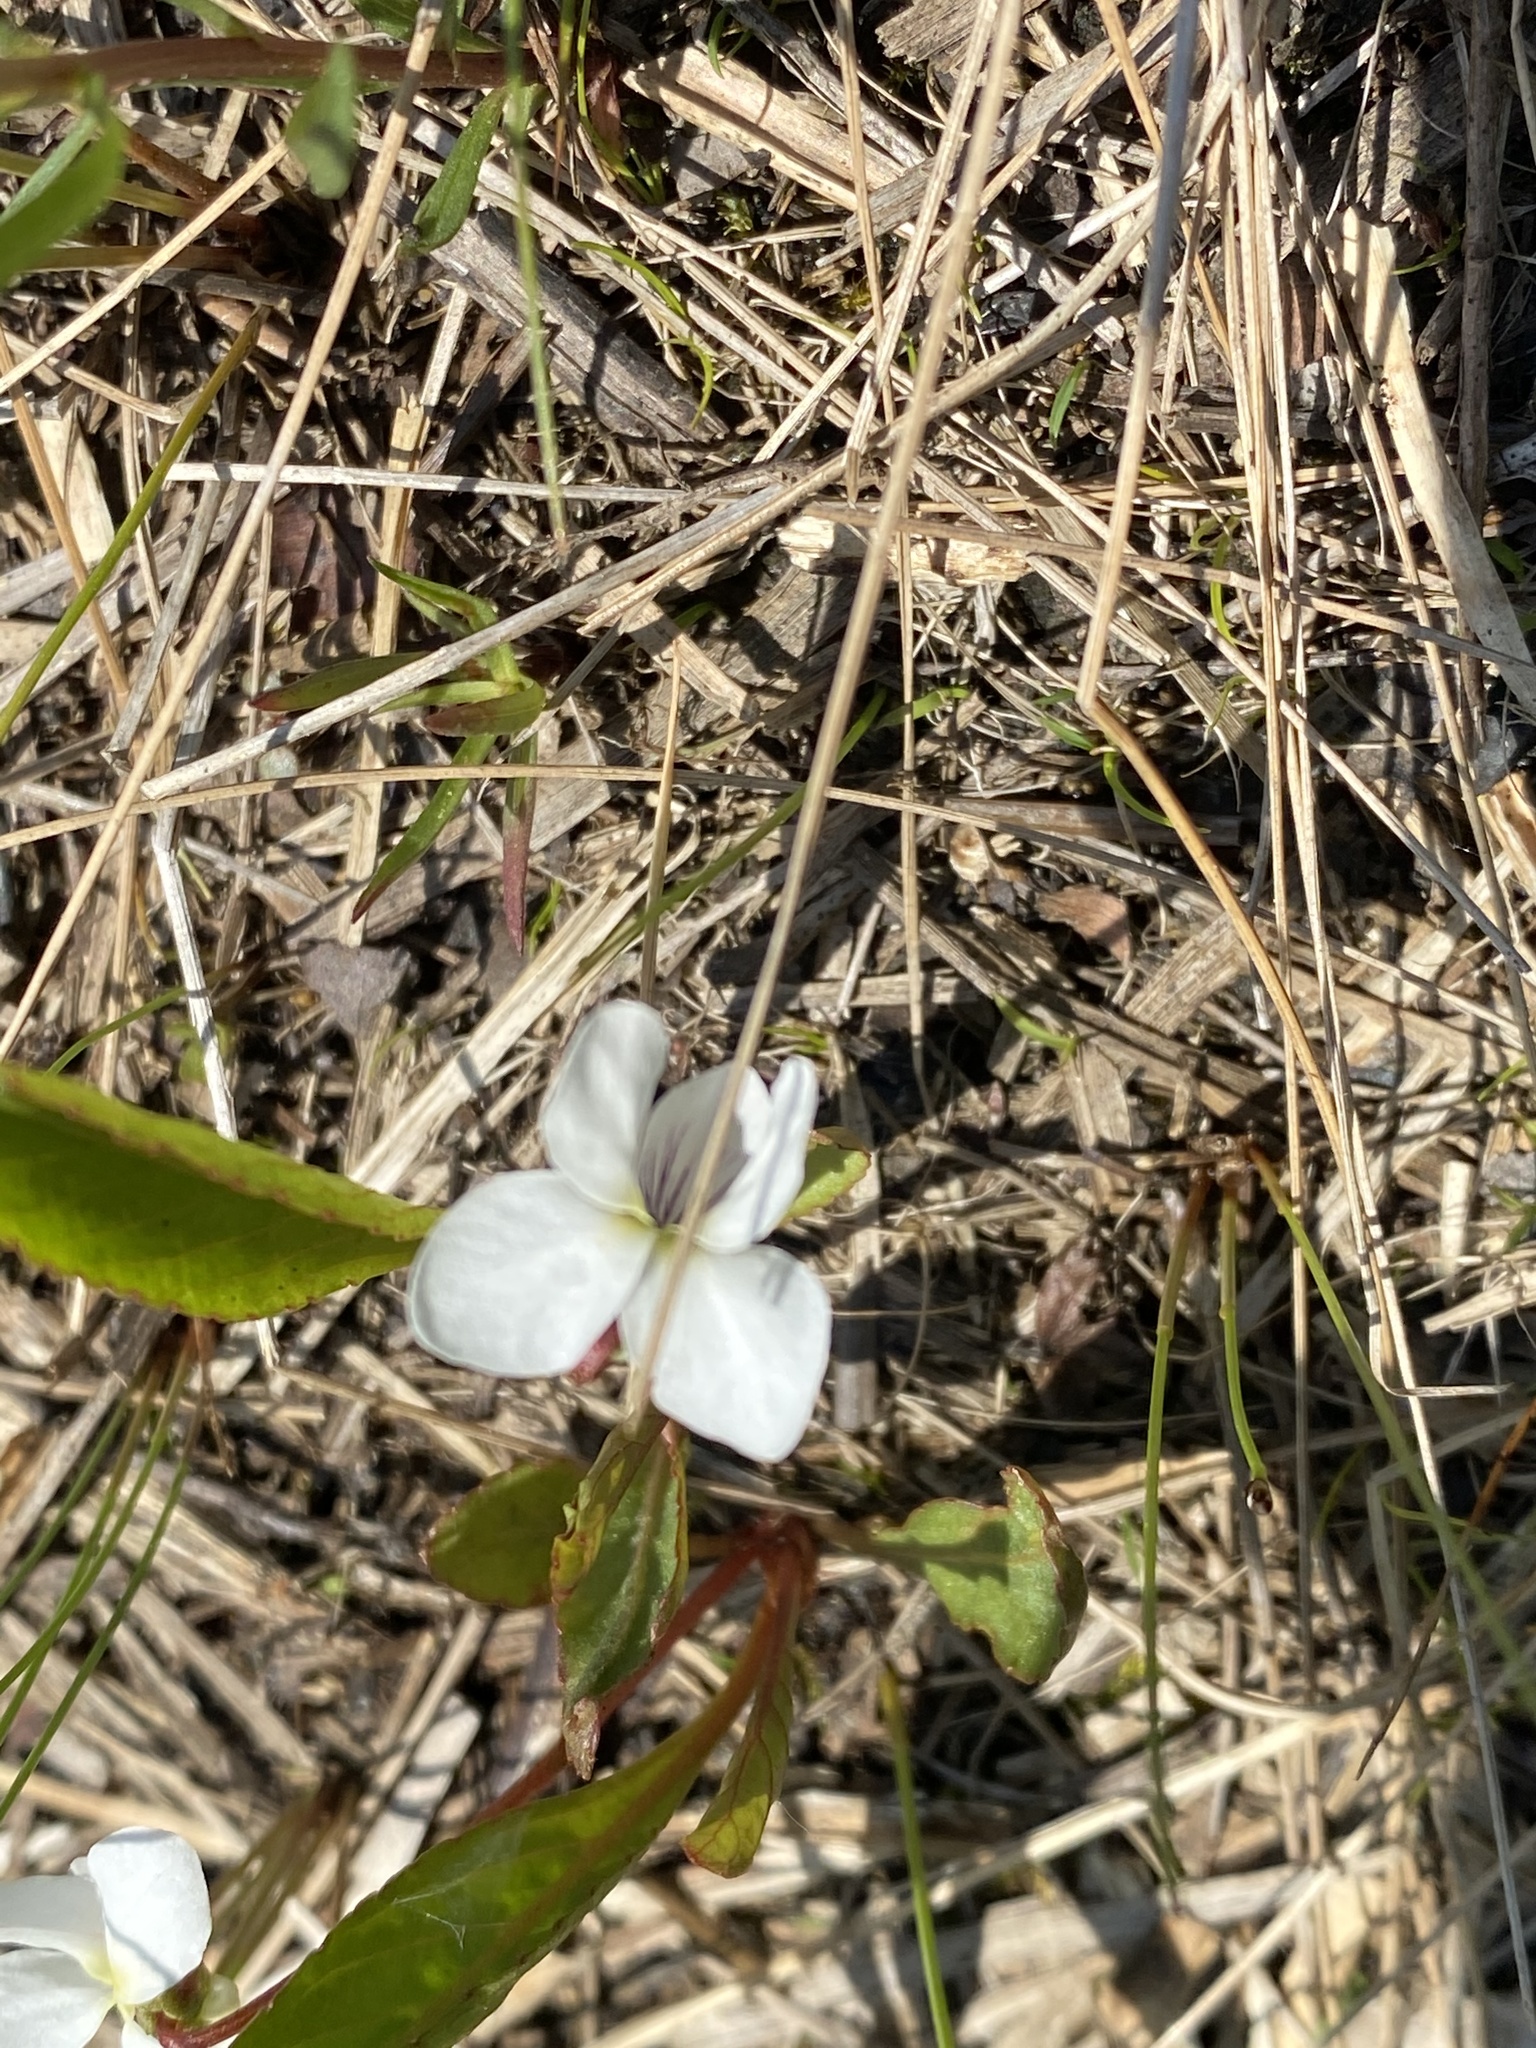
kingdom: Plantae
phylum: Tracheophyta
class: Magnoliopsida
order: Malpighiales
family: Violaceae
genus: Viola
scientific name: Viola lanceolata
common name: Bog white violet
